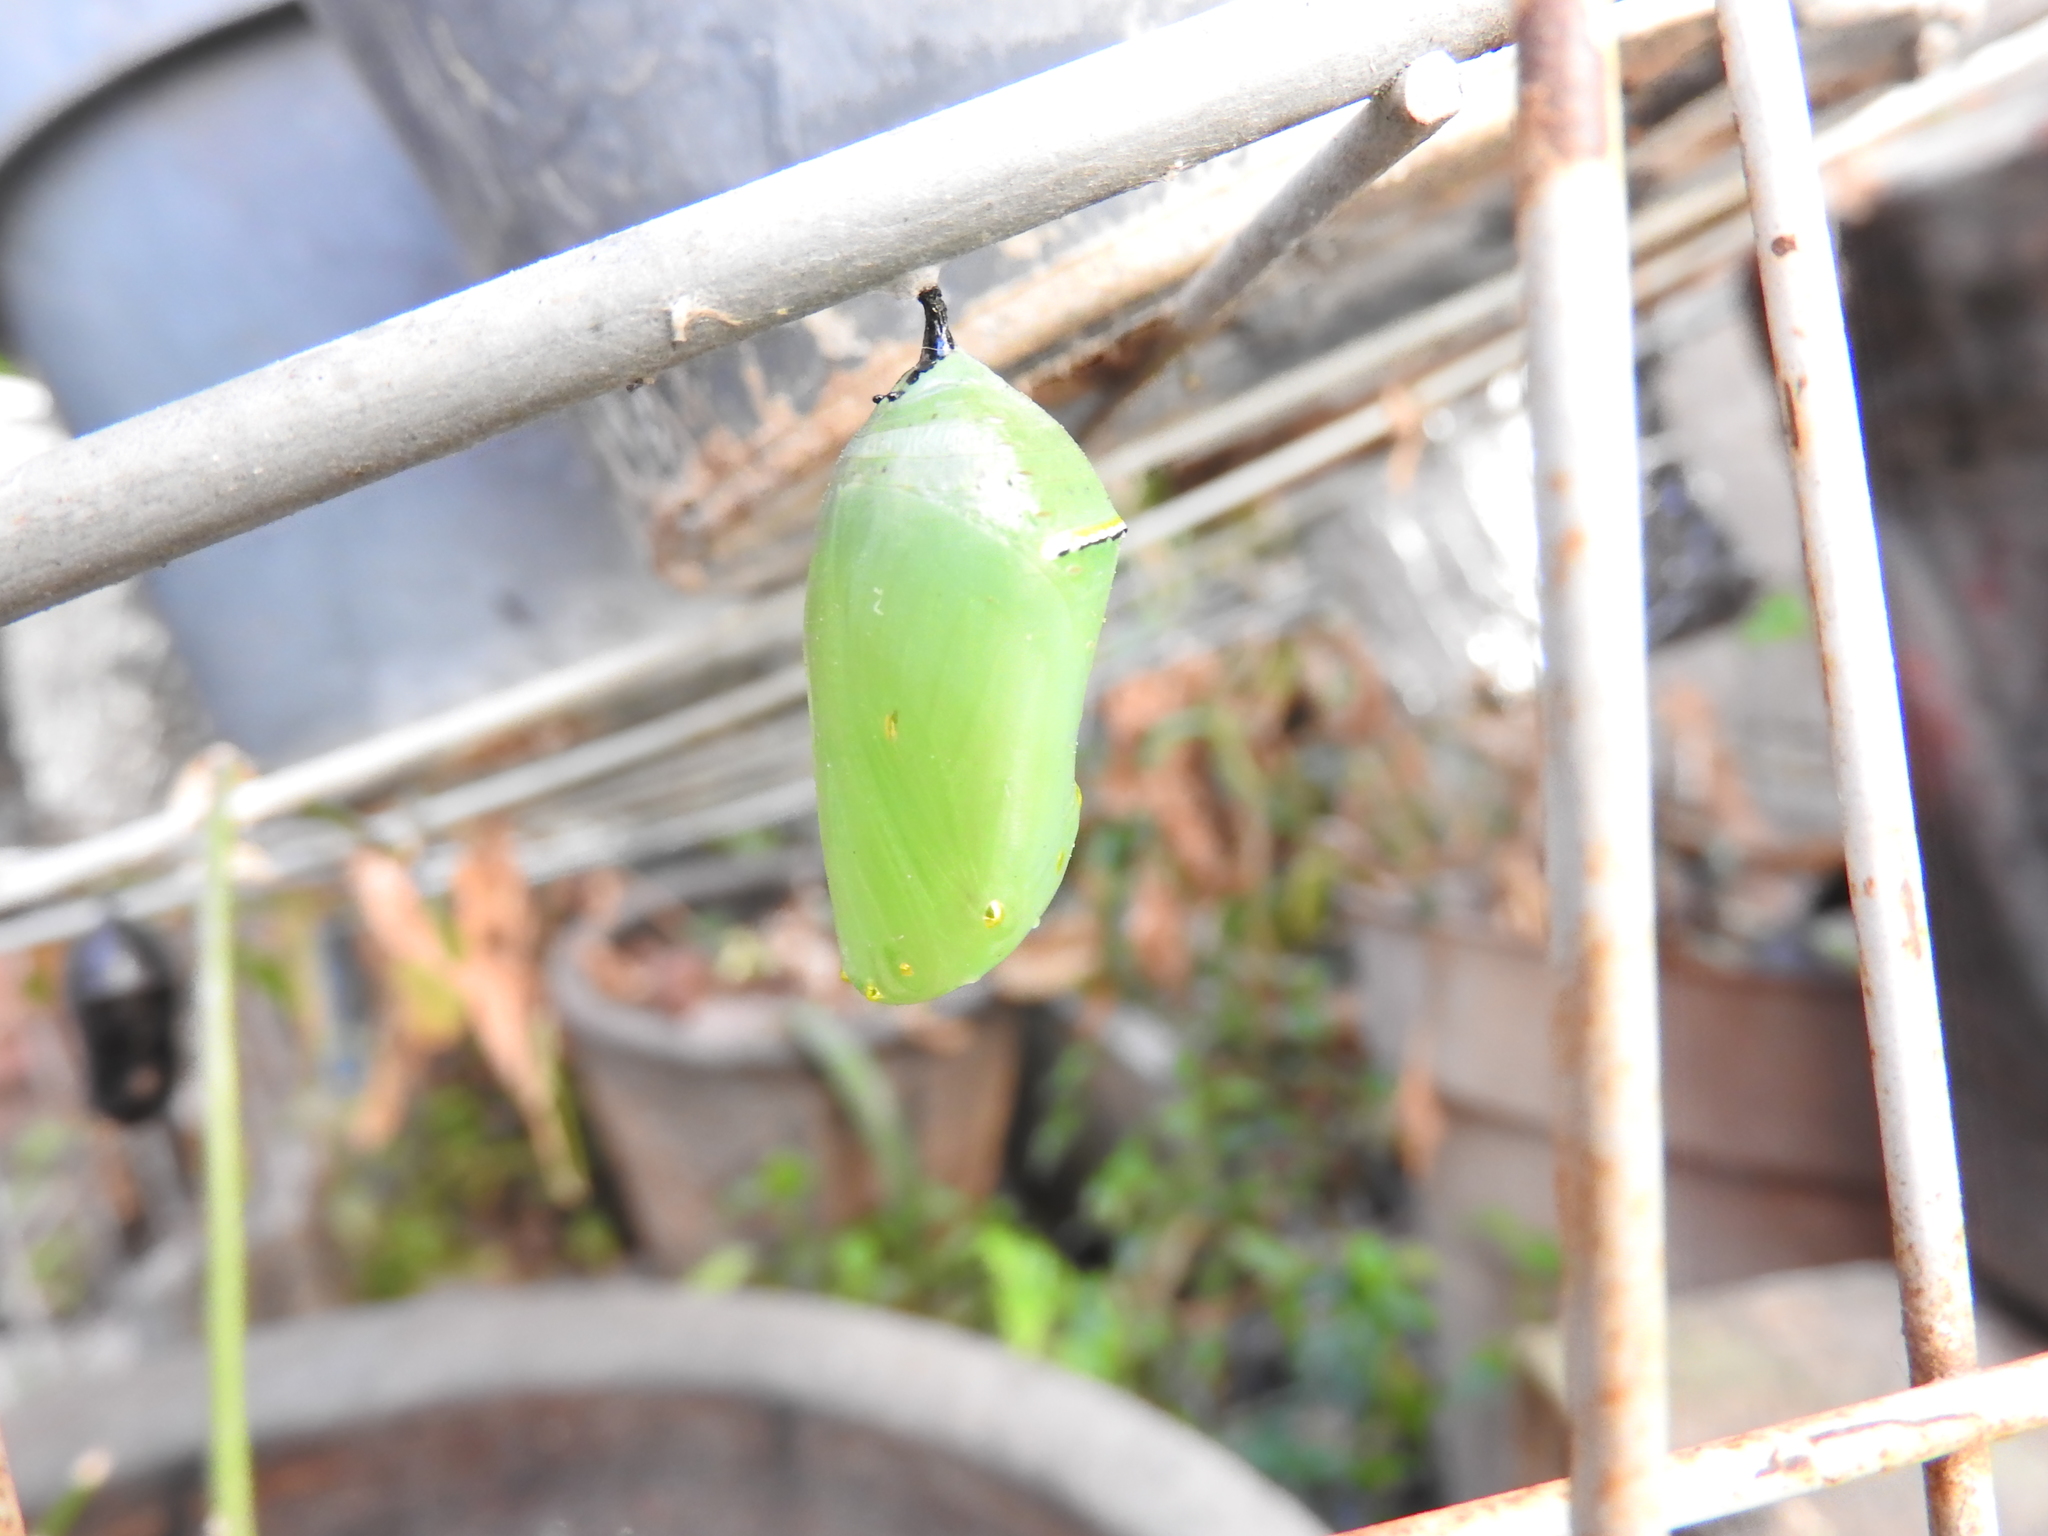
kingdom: Animalia
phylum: Arthropoda
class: Insecta
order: Lepidoptera
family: Nymphalidae
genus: Danaus
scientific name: Danaus plexippus
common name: Monarch
